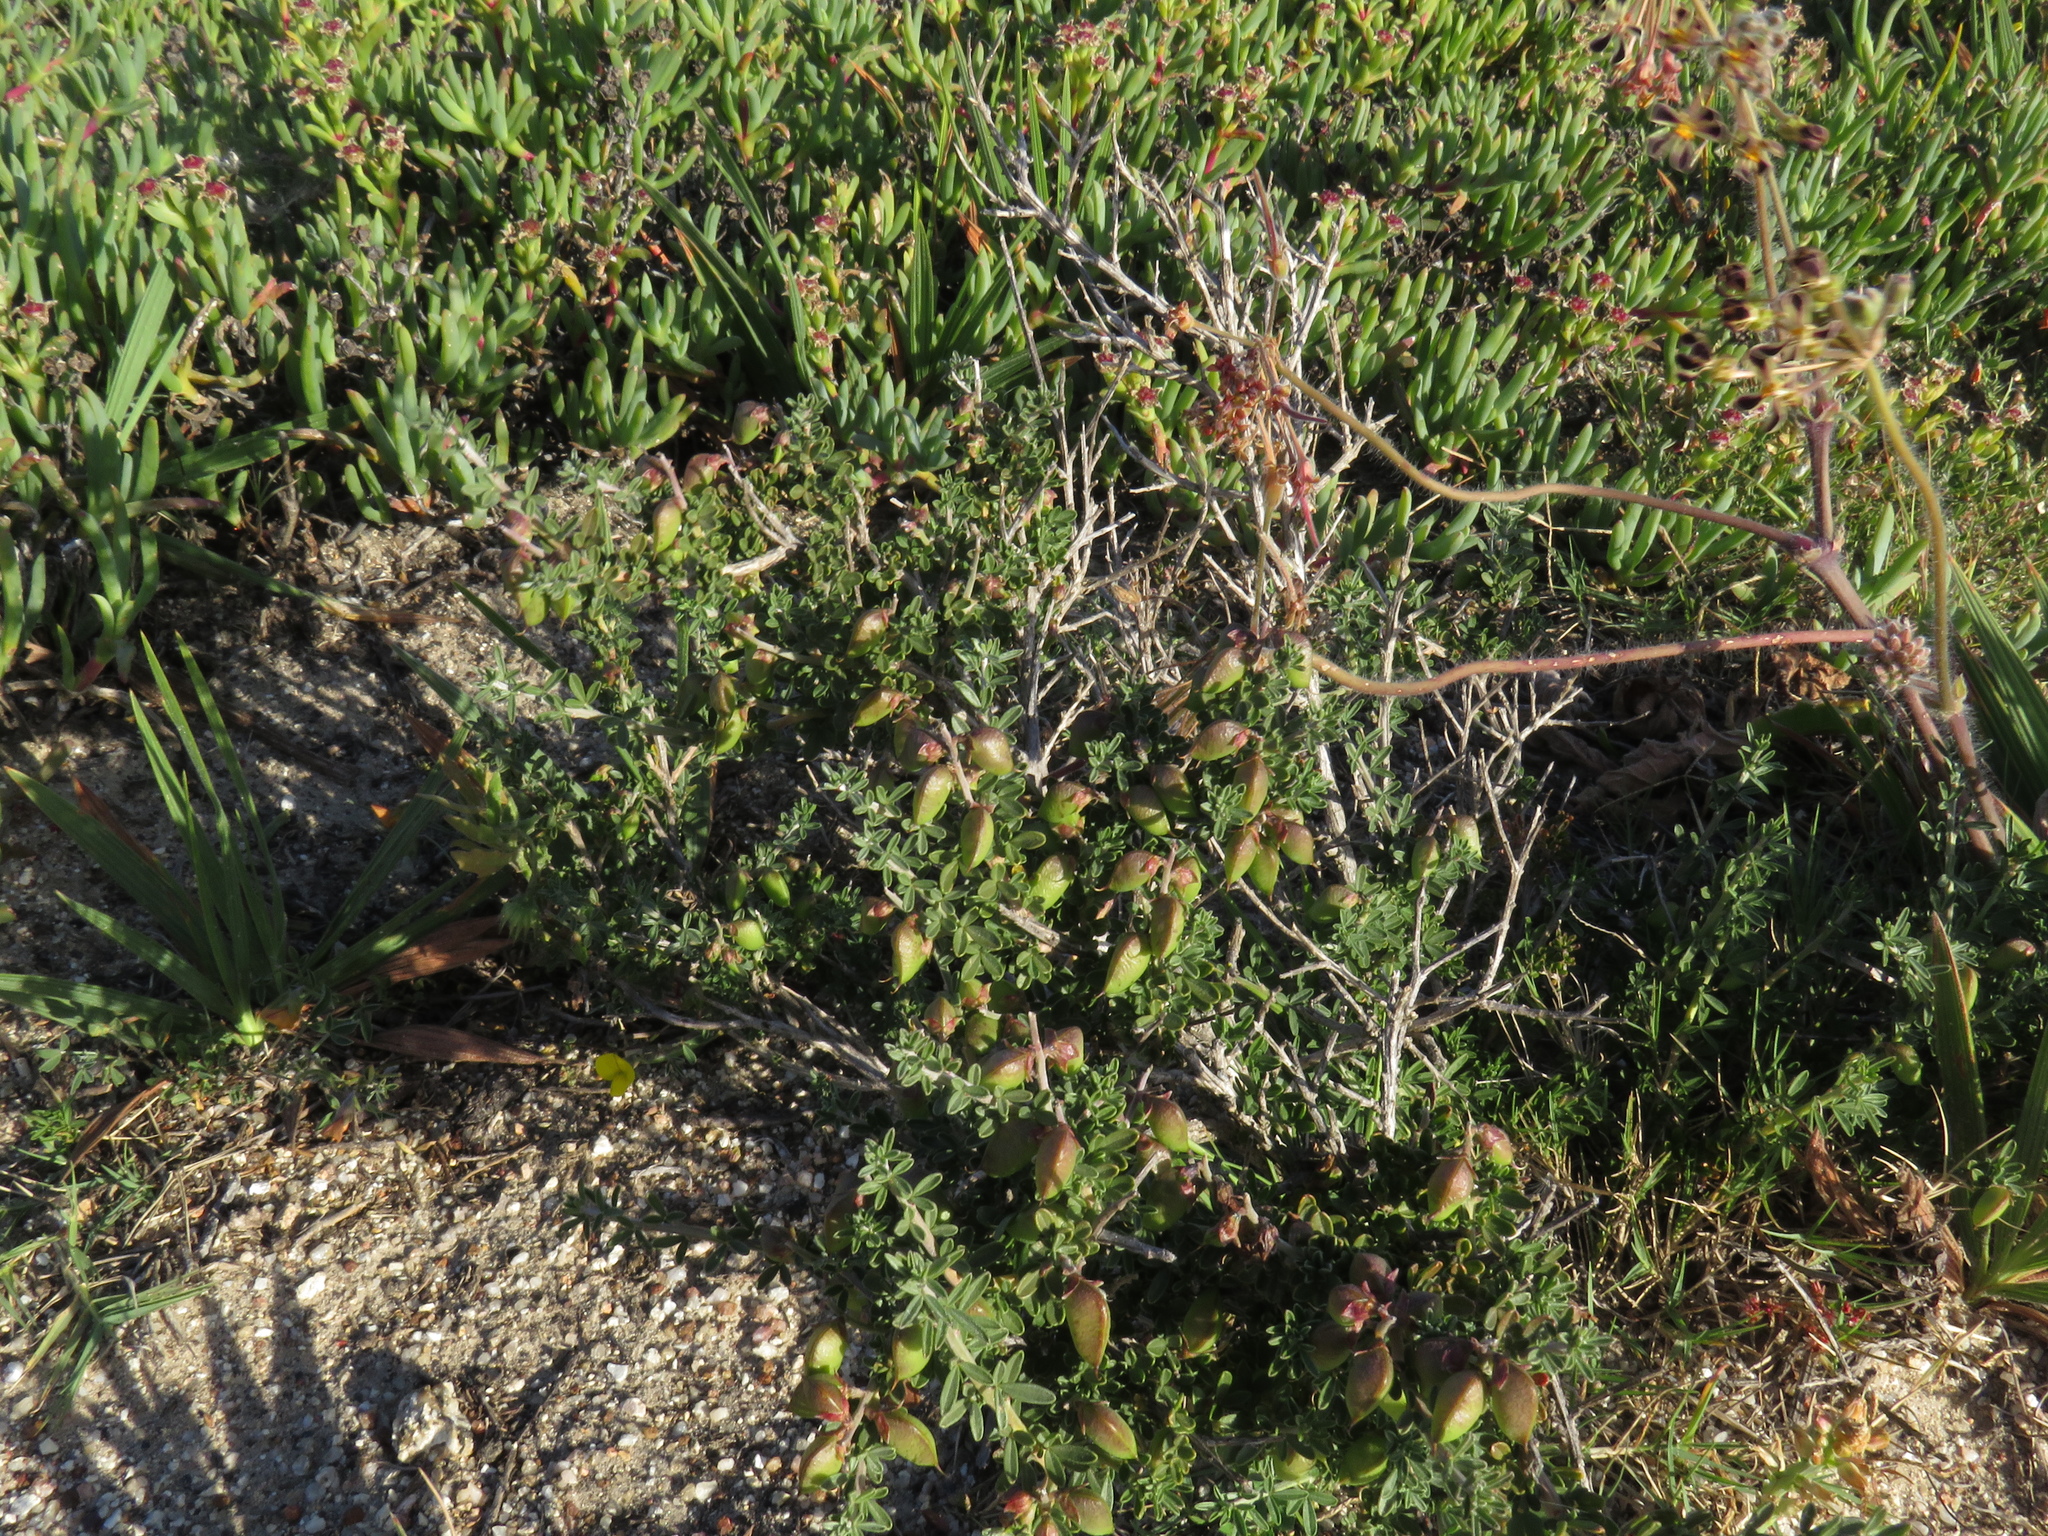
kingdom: Plantae
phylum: Tracheophyta
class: Magnoliopsida
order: Fabales
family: Fabaceae
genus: Wiborgiella
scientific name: Wiborgiella dahlgrenii
